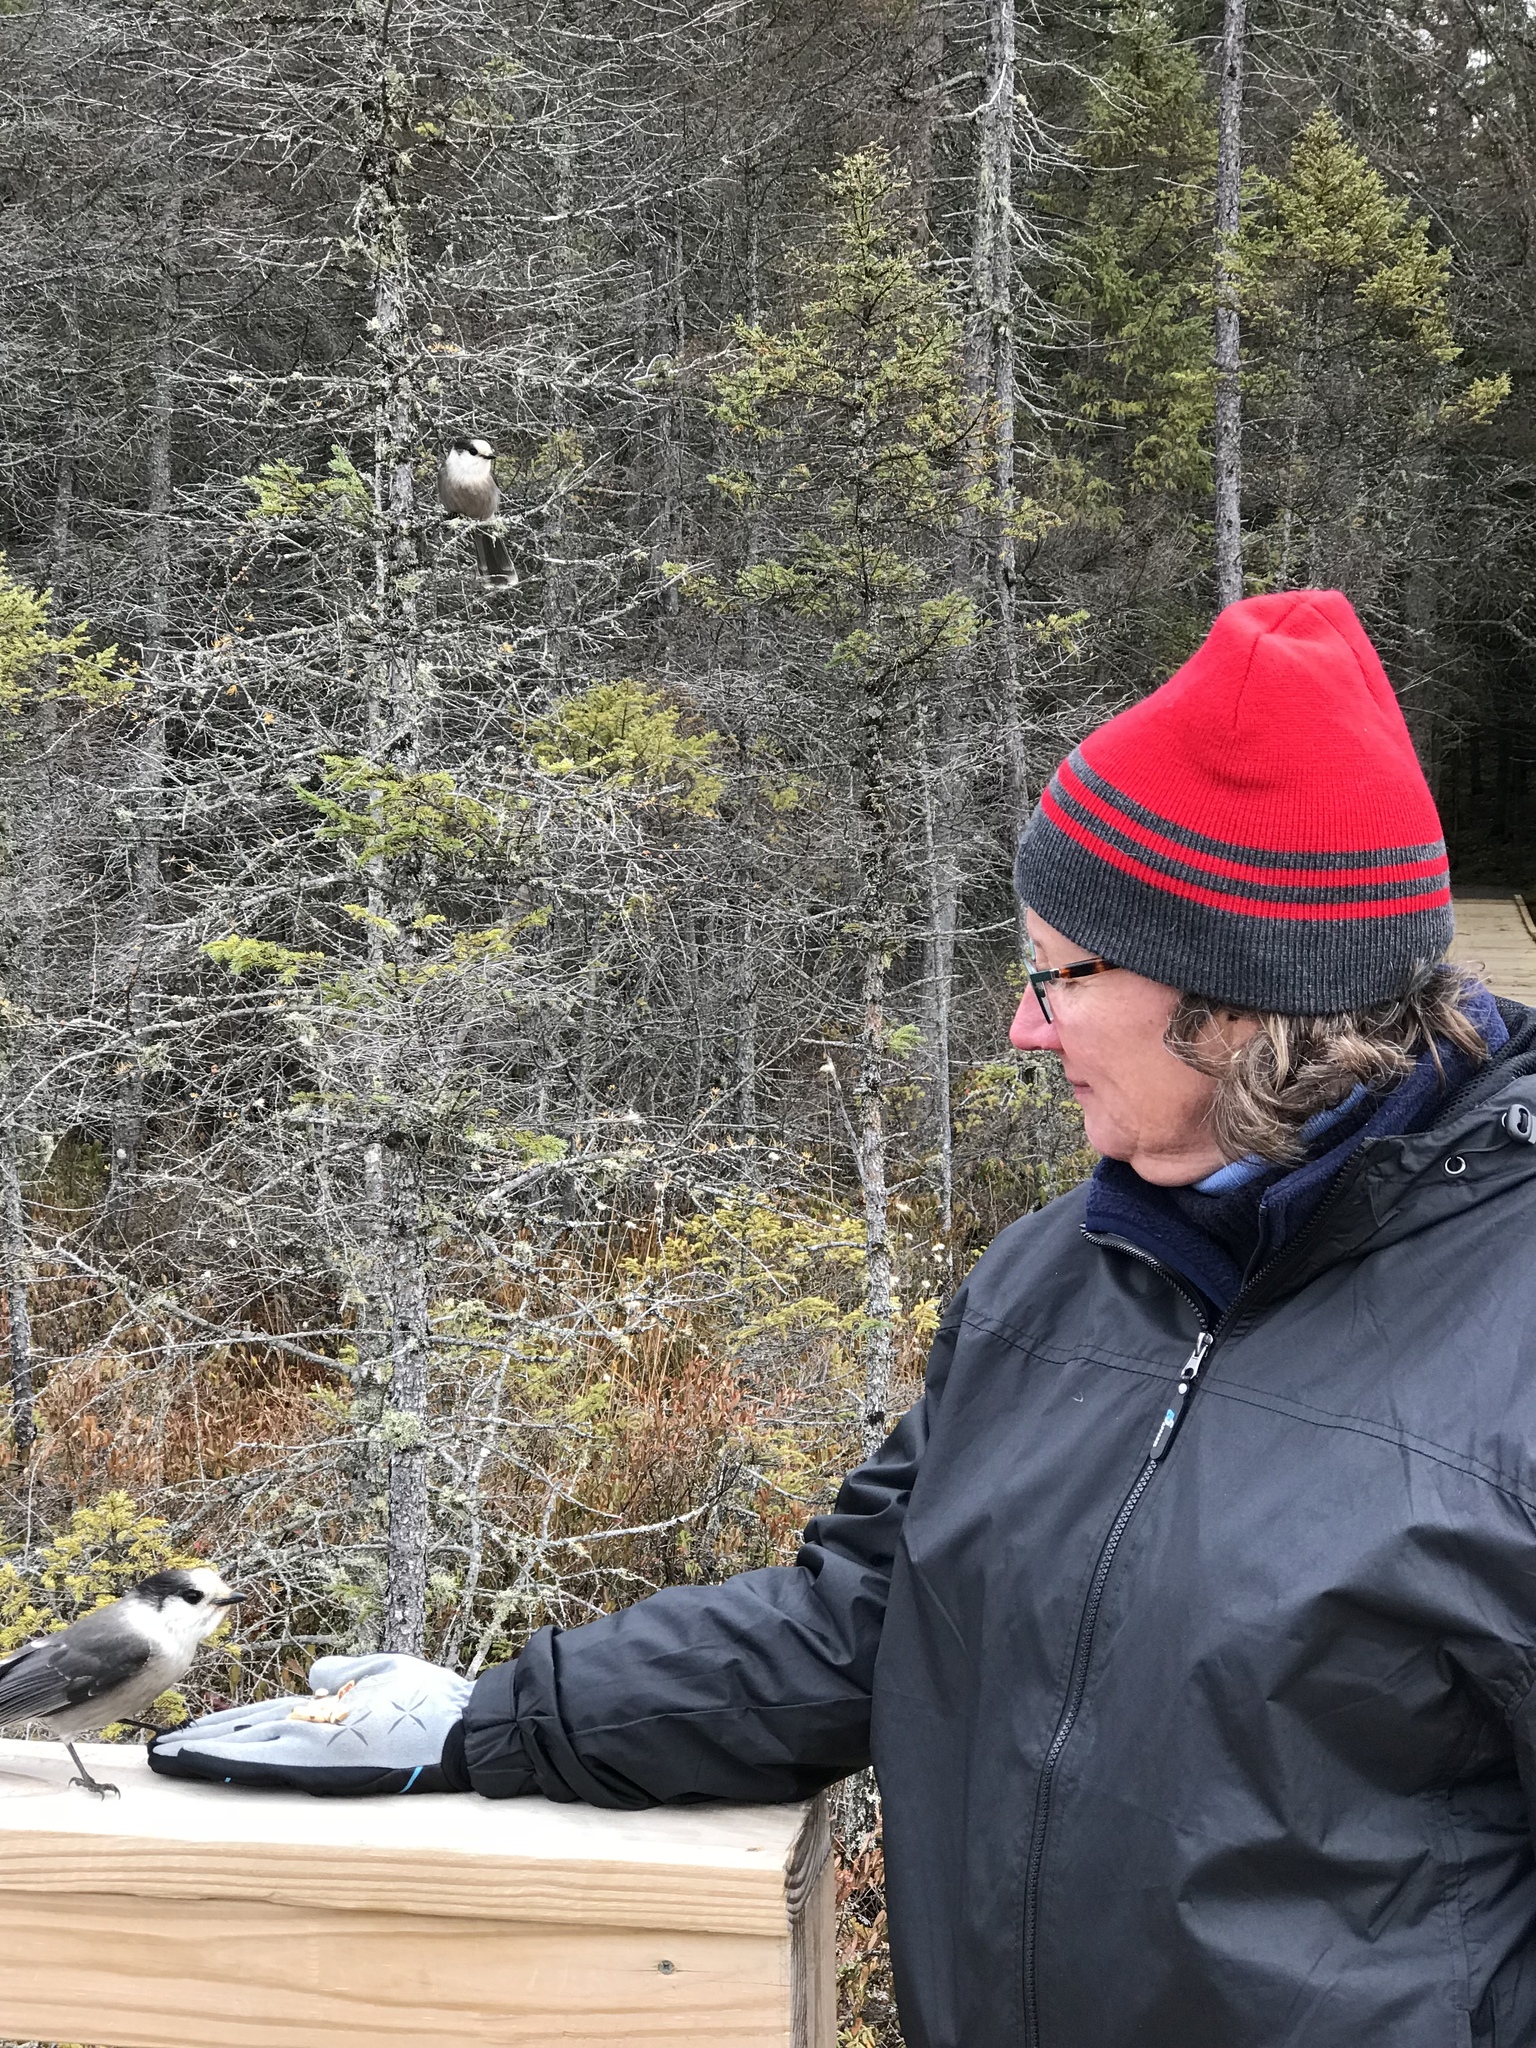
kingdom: Animalia
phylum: Chordata
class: Aves
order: Passeriformes
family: Corvidae
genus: Perisoreus
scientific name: Perisoreus canadensis
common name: Gray jay
